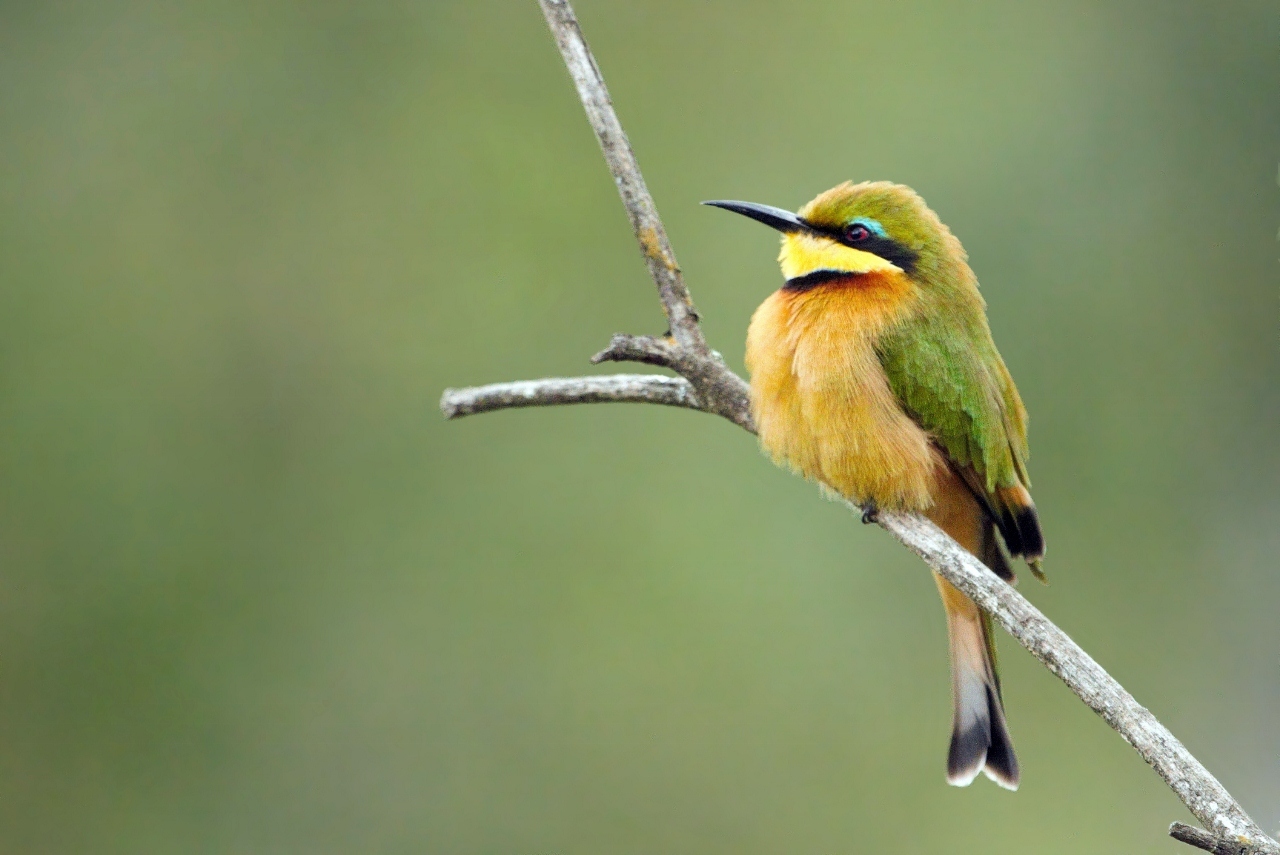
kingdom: Animalia
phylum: Chordata
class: Aves
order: Coraciiformes
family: Meropidae
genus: Merops
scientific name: Merops pusillus
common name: Little bee-eater
